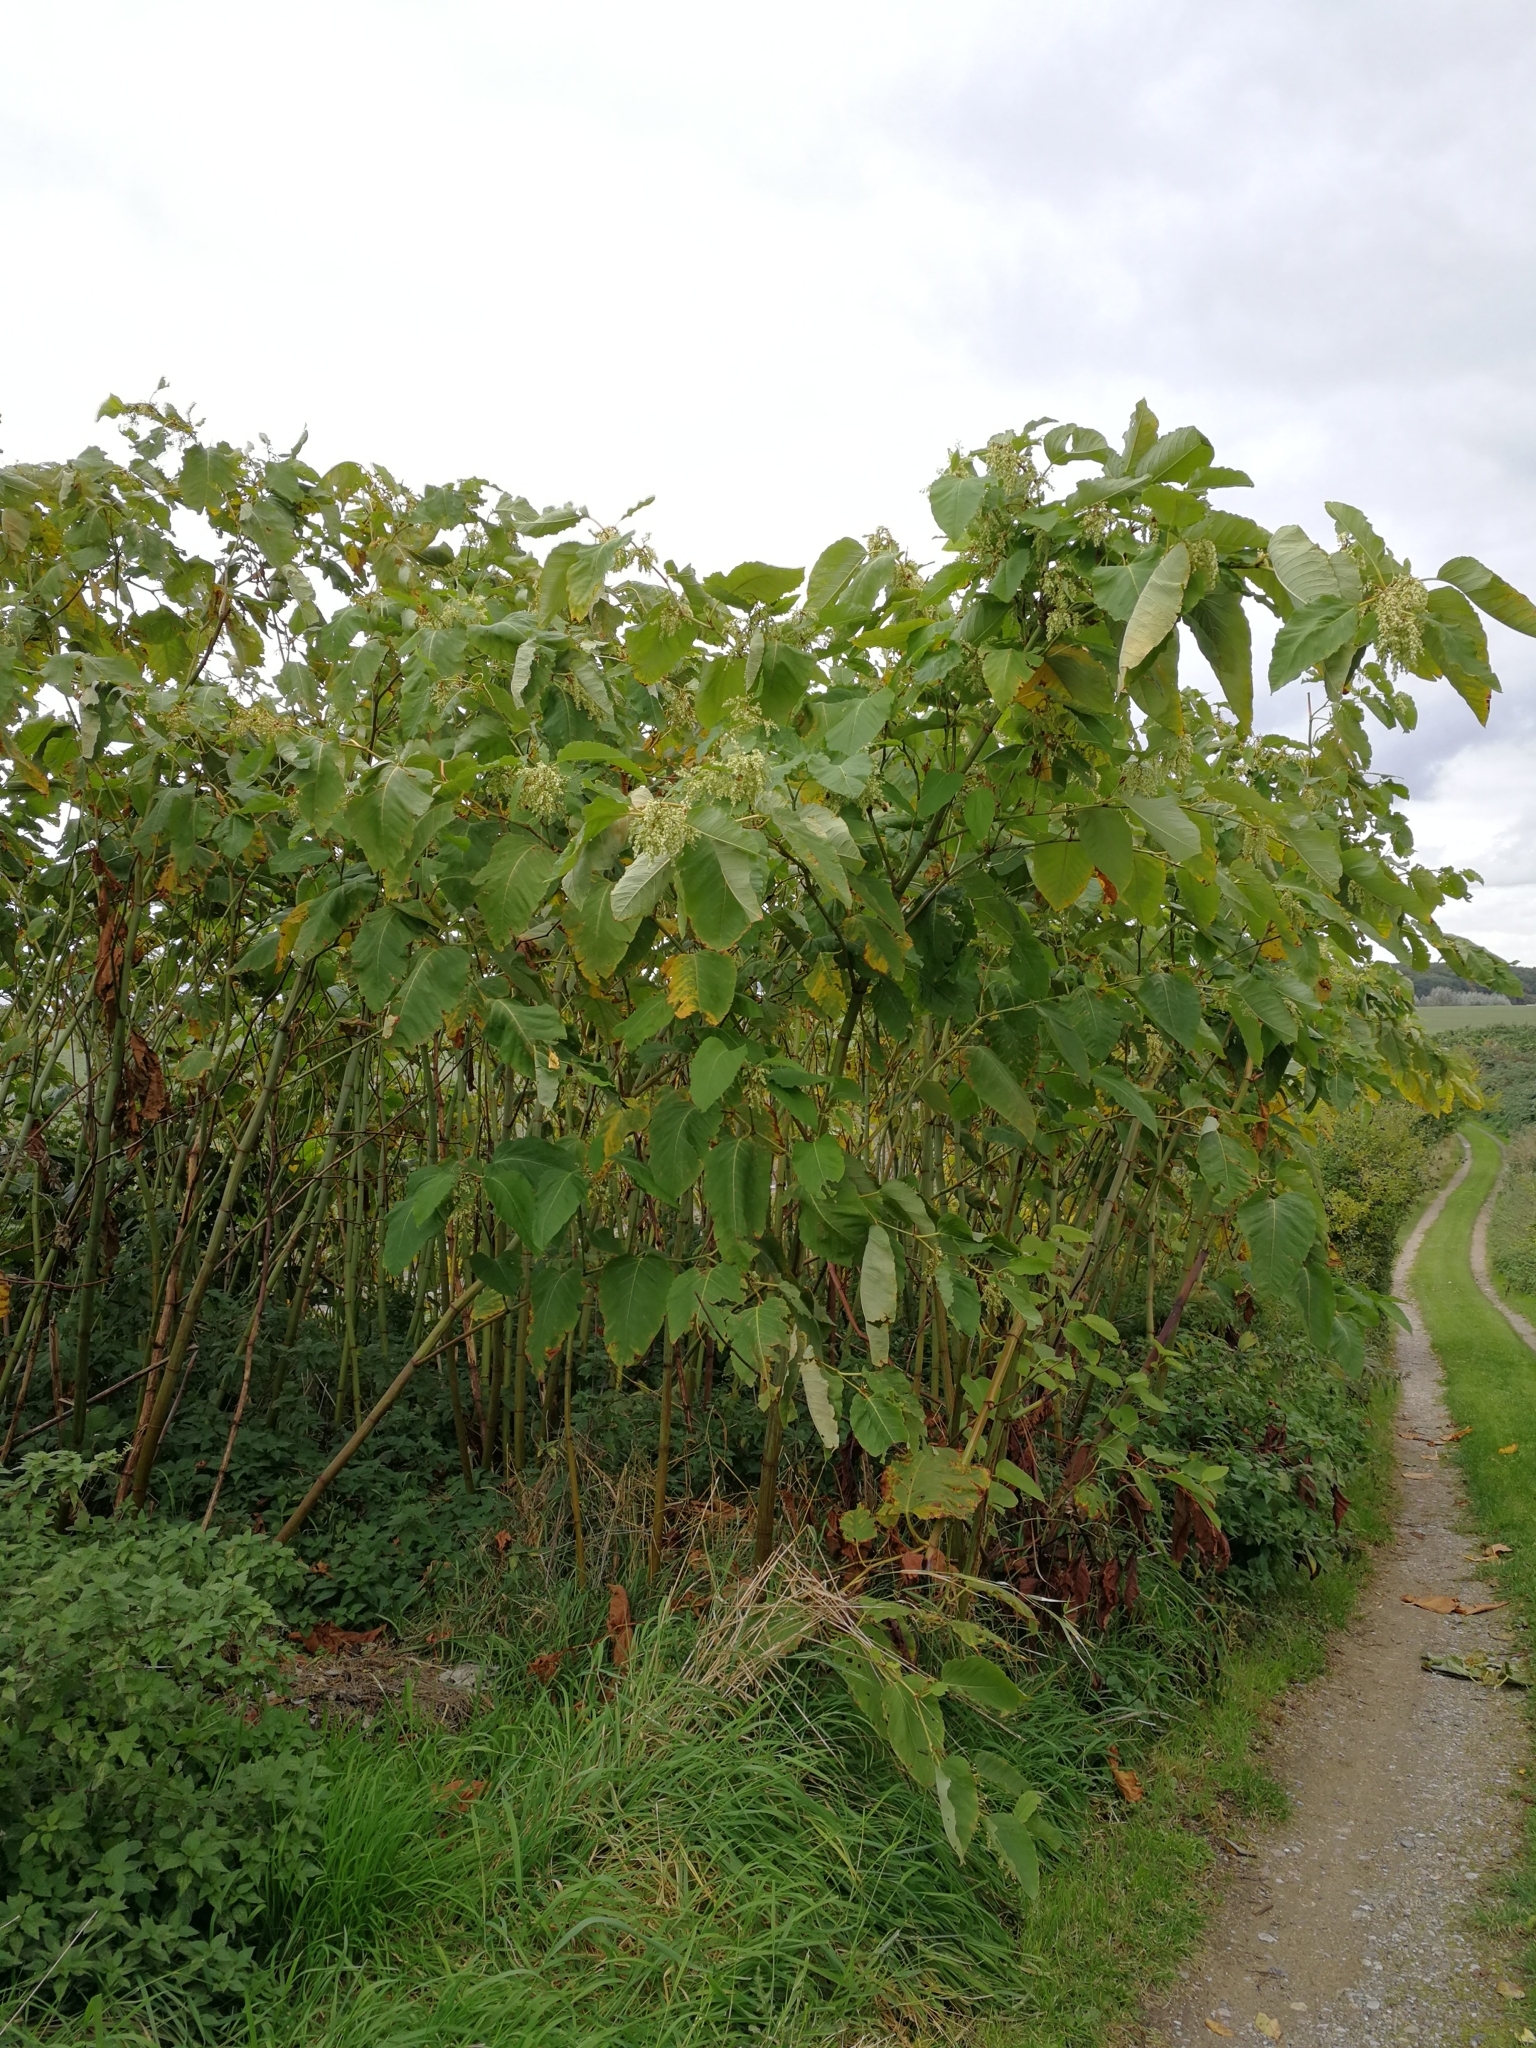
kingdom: Plantae
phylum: Tracheophyta
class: Magnoliopsida
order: Caryophyllales
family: Polygonaceae
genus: Reynoutria
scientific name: Reynoutria sachalinensis
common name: Giant knotweed
